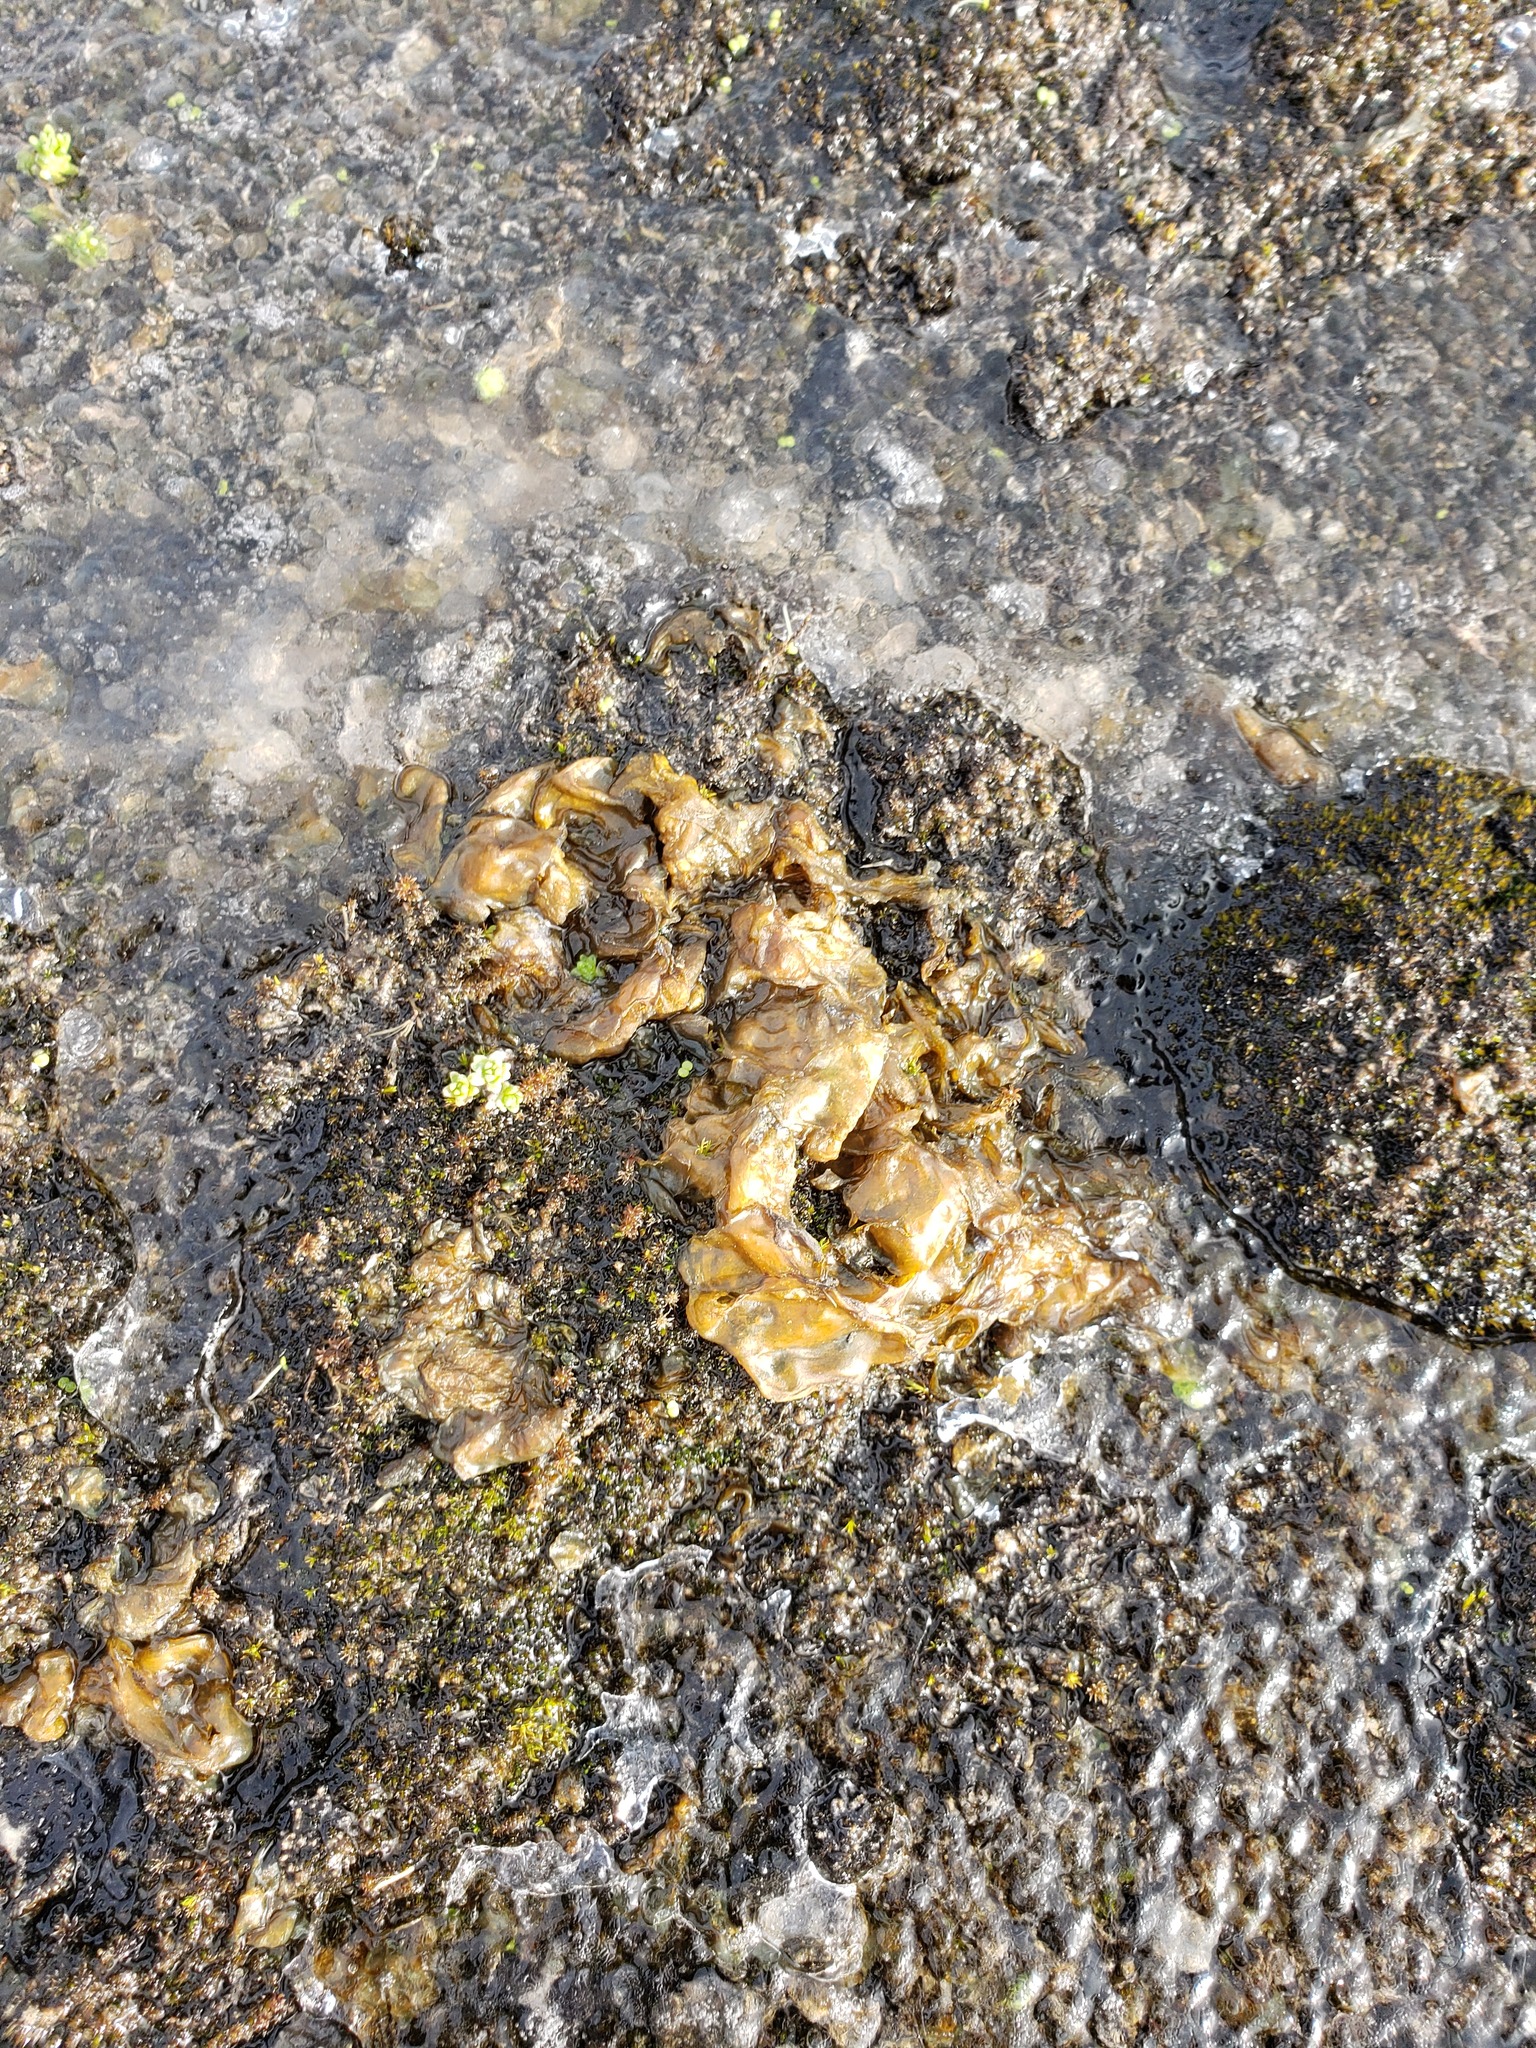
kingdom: Bacteria
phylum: Cyanobacteria
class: Cyanobacteriia
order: Cyanobacteriales
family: Nostocaceae
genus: Nostoc
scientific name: Nostoc commune
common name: Star jelly
